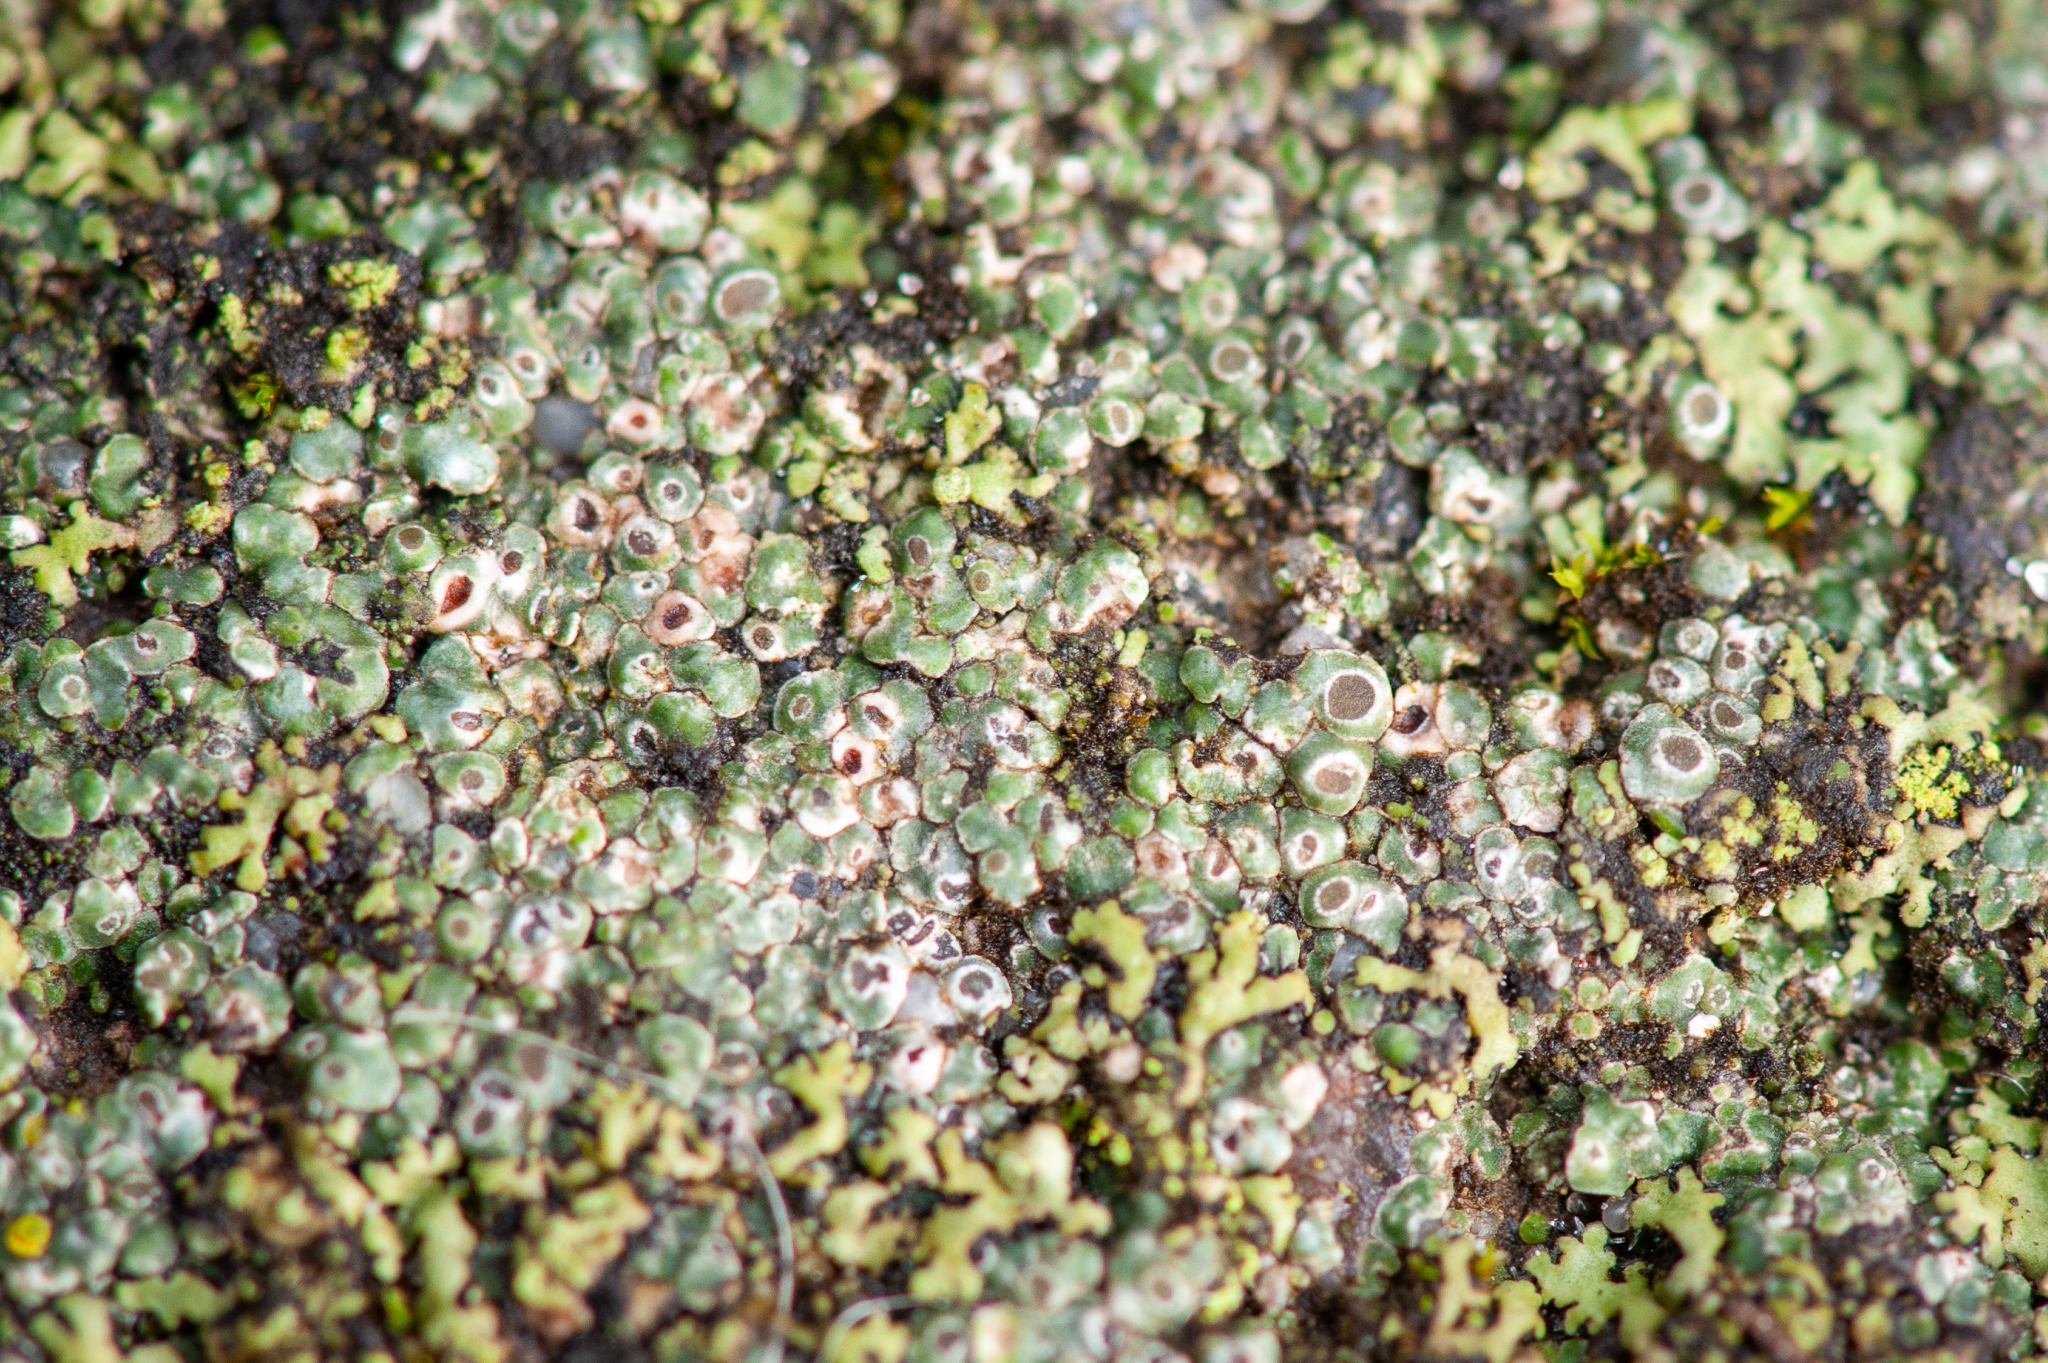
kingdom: Fungi
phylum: Ascomycota
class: Lecanoromycetes
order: Pertusariales
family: Megasporaceae
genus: Circinaria
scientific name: Circinaria contorta
